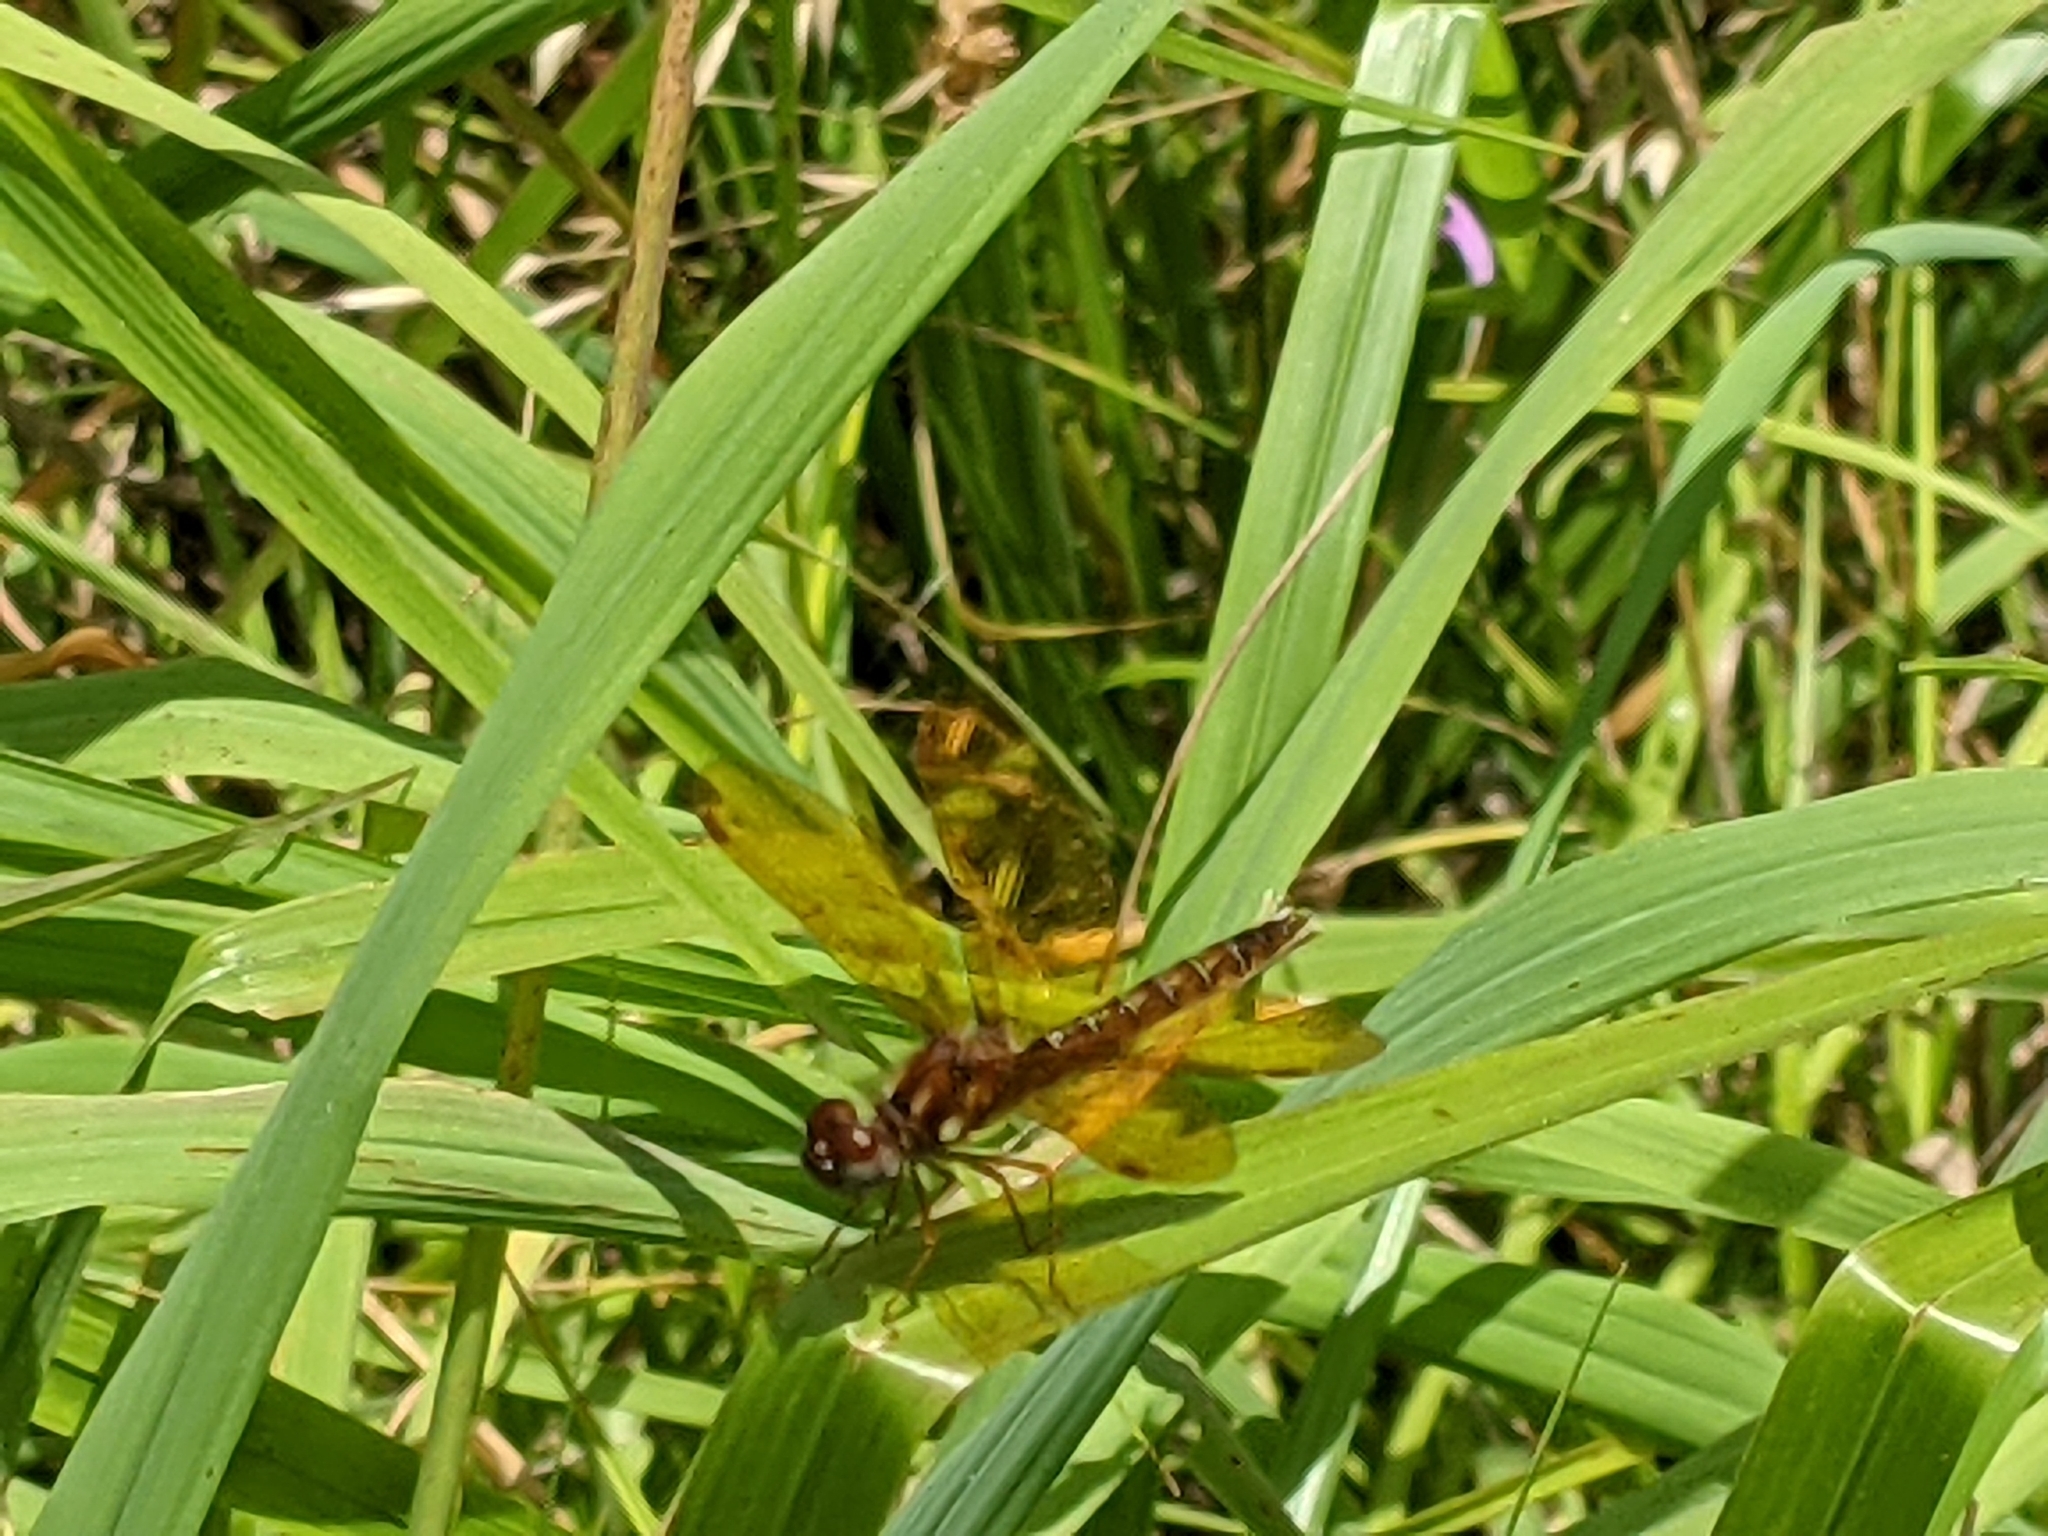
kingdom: Animalia
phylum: Arthropoda
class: Insecta
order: Odonata
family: Libellulidae
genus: Perithemis
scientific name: Perithemis tenera
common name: Eastern amberwing
